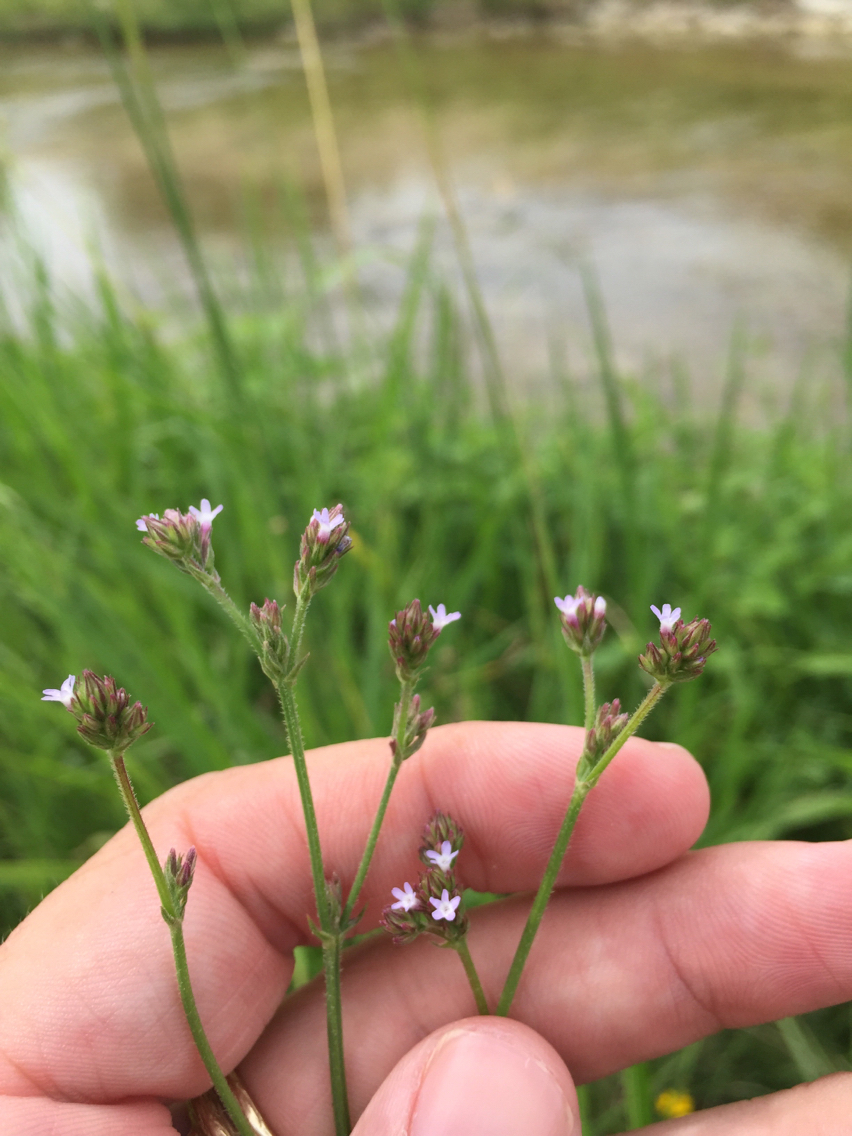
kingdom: Plantae
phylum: Tracheophyta
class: Magnoliopsida
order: Lamiales
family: Verbenaceae
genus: Verbena
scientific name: Verbena brasiliensis
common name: Brazilian vervain
